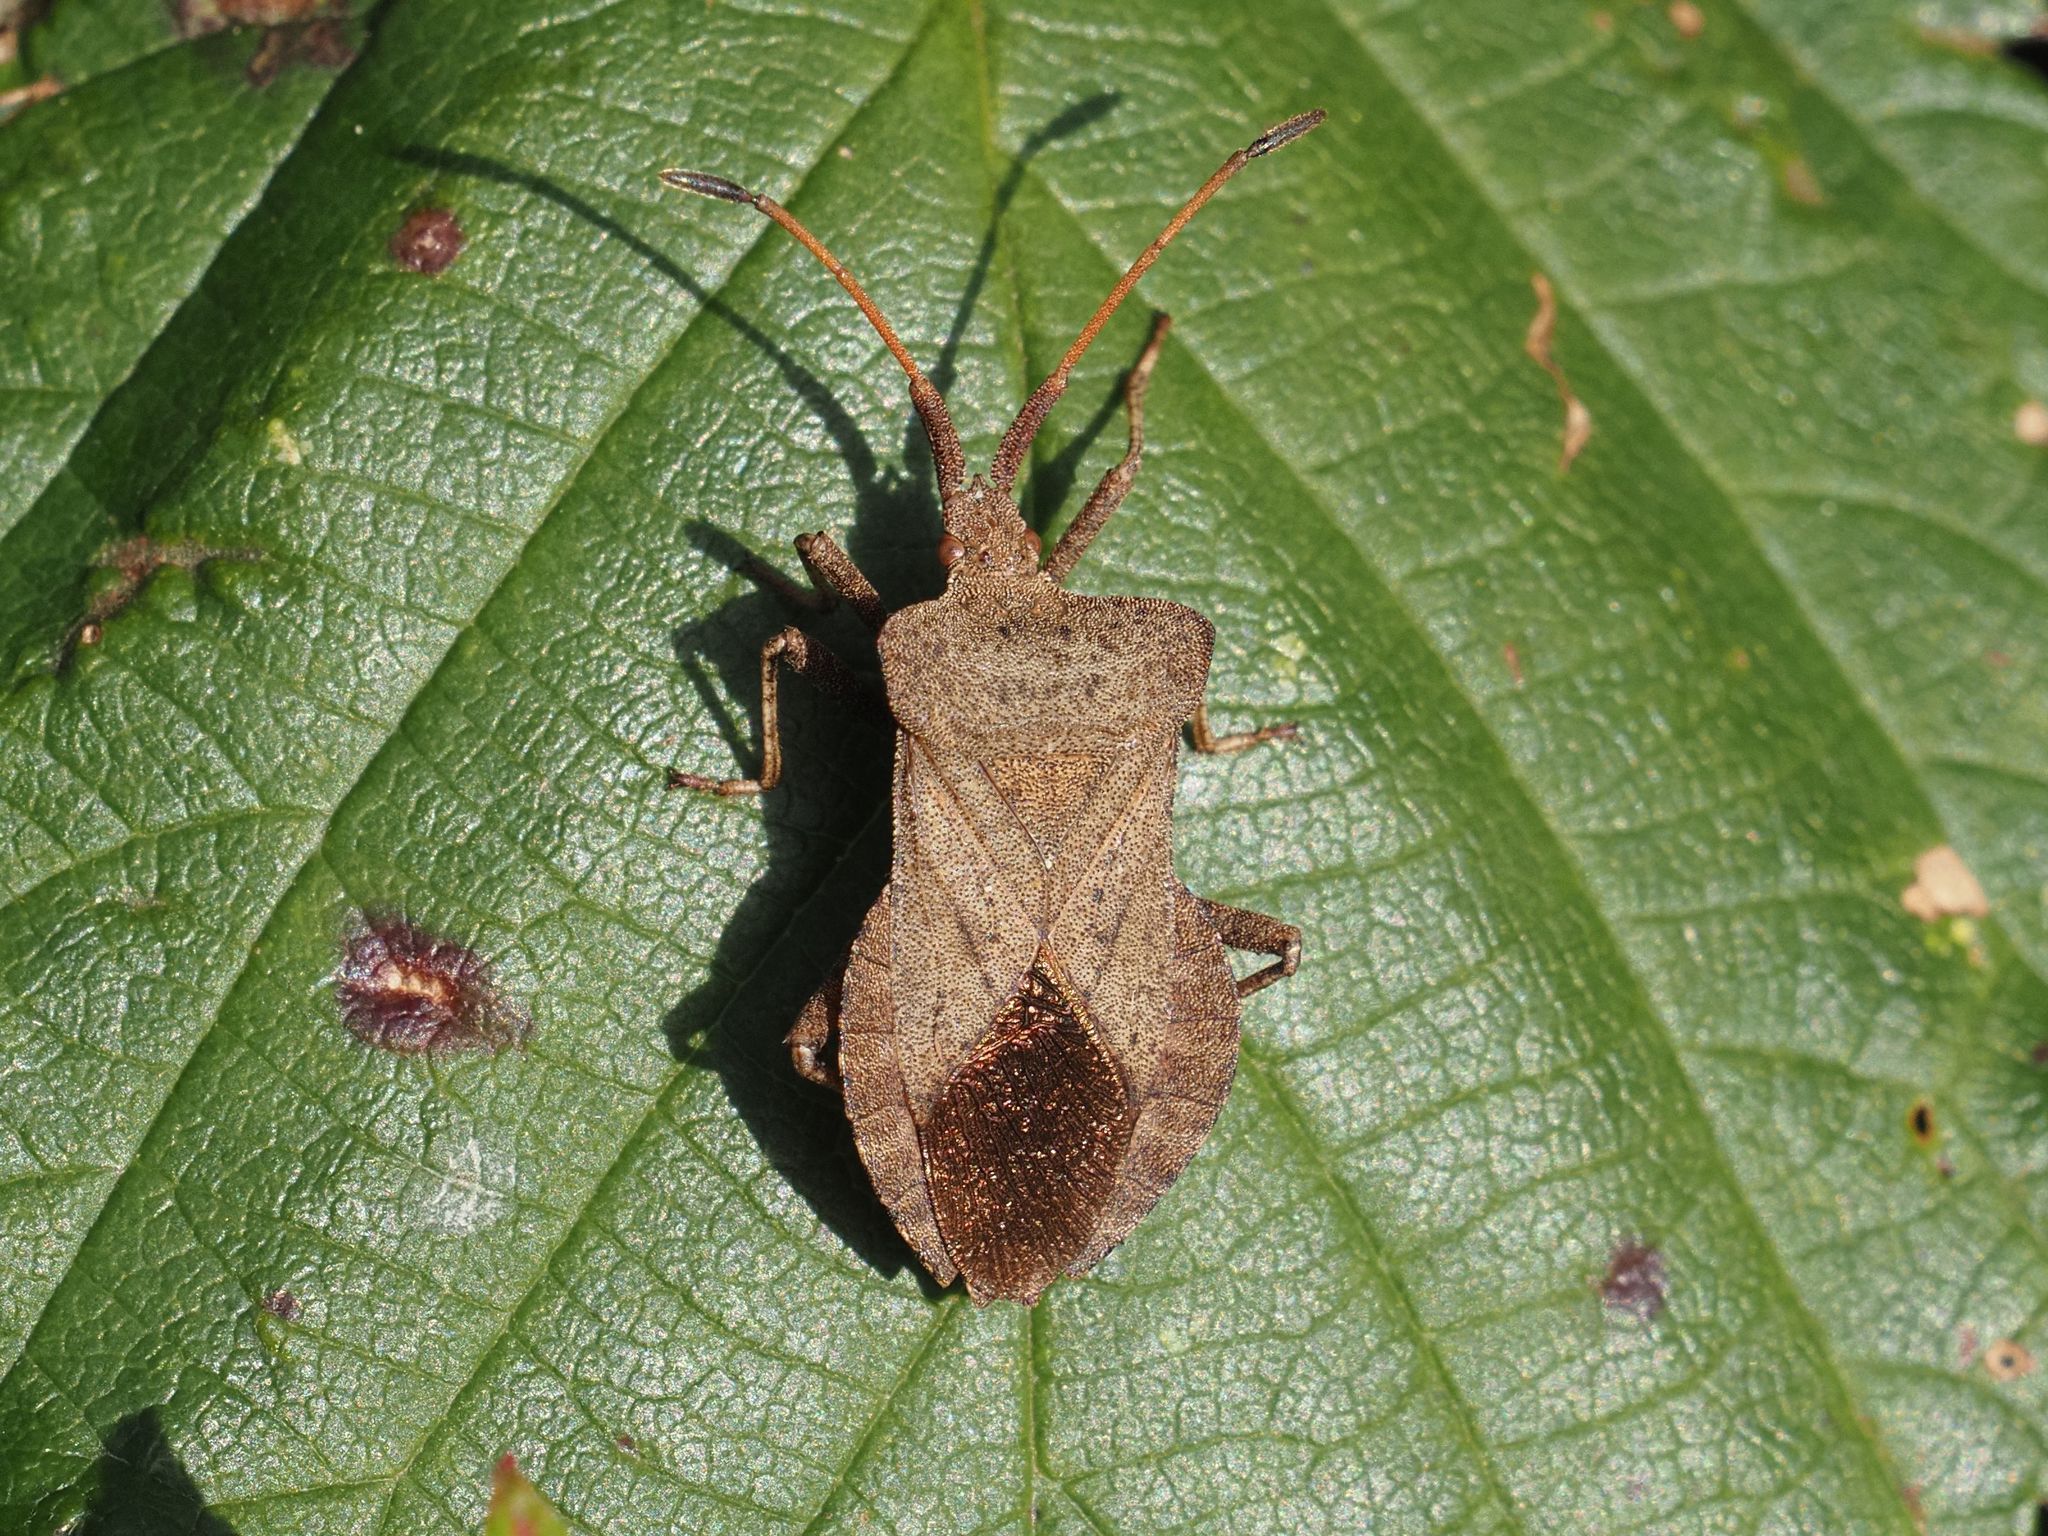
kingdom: Animalia
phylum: Arthropoda
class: Insecta
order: Hemiptera
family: Coreidae
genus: Coreus
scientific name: Coreus marginatus
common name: Dock bug
